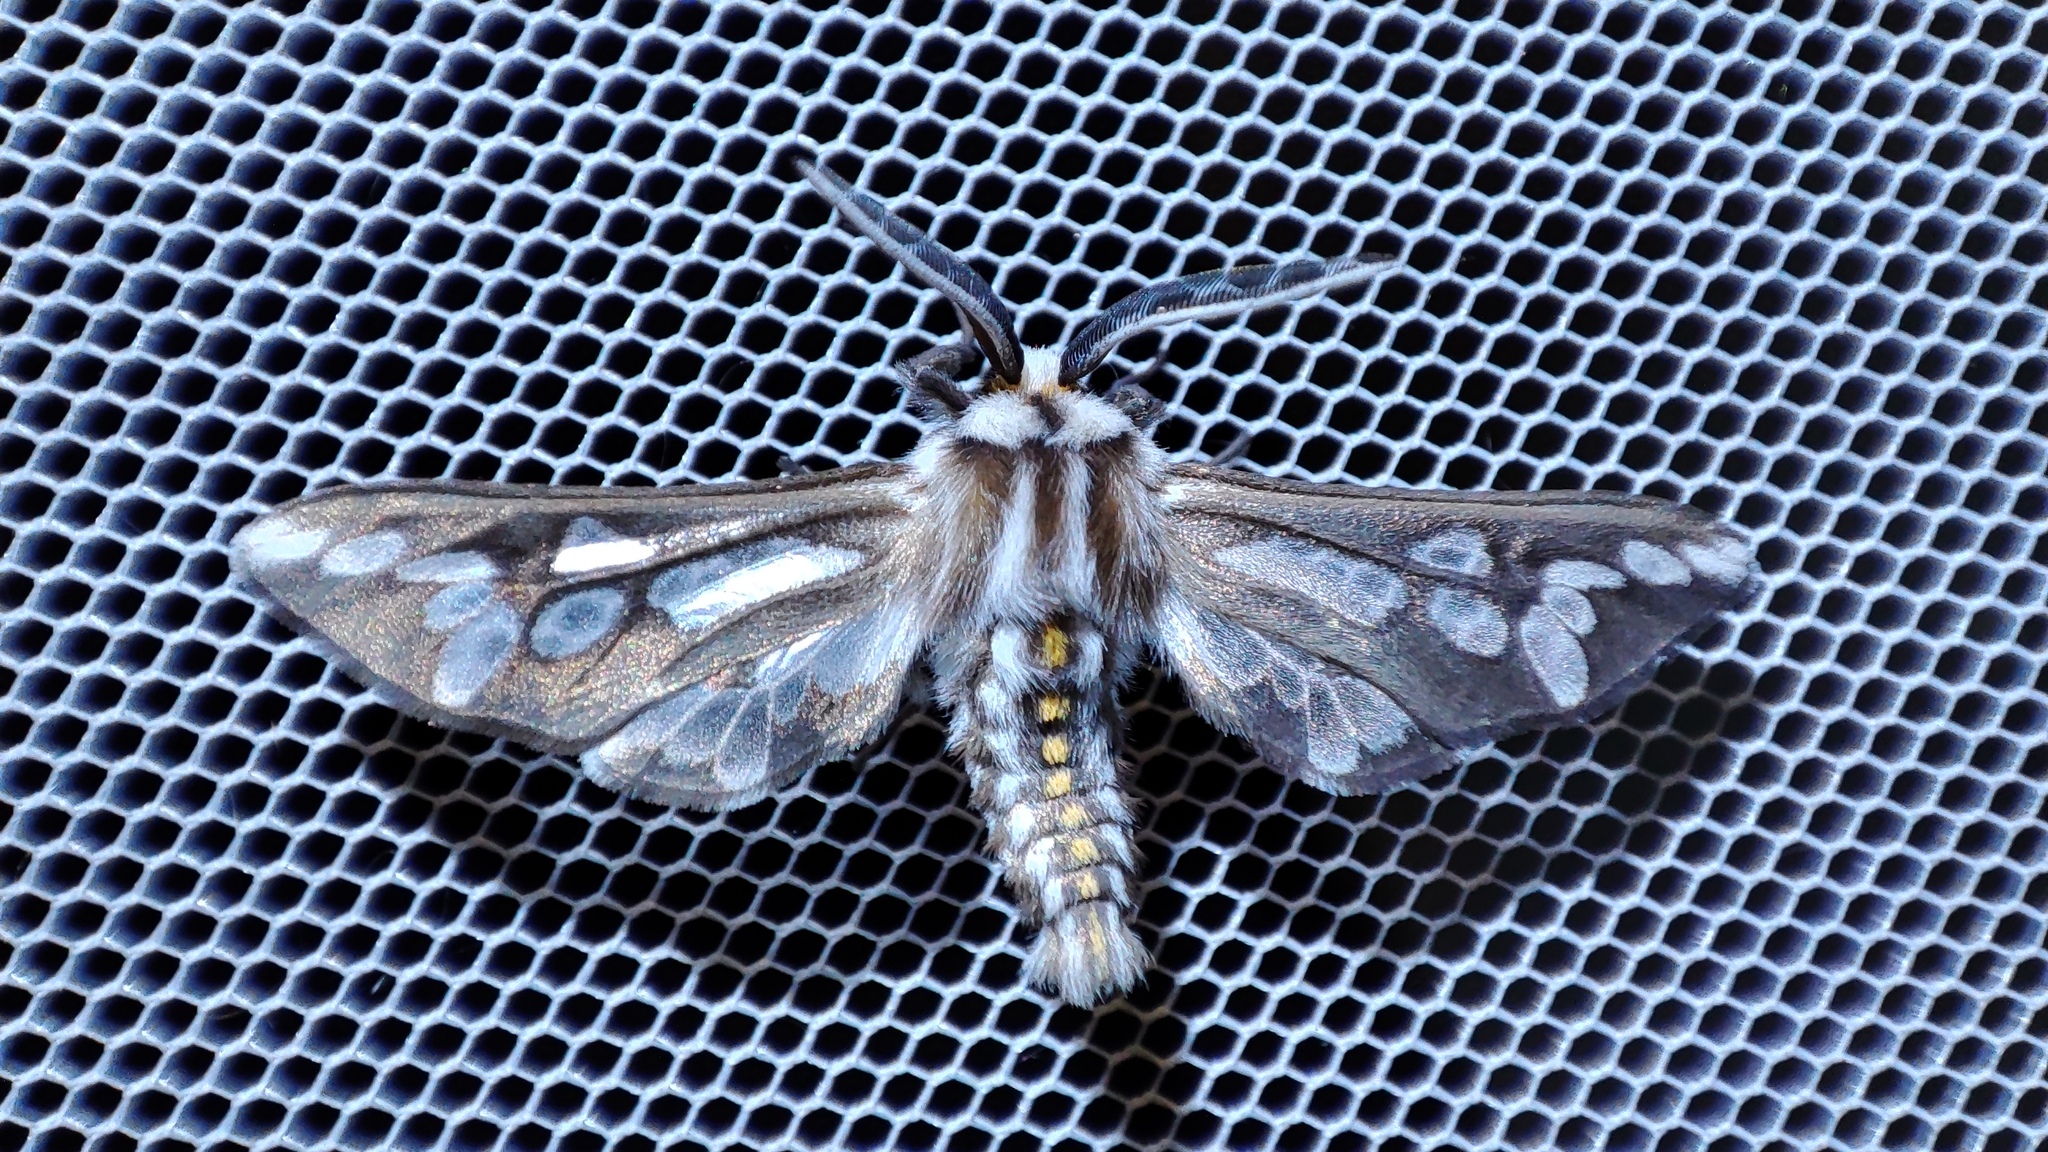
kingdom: Animalia
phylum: Arthropoda
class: Insecta
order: Lepidoptera
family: Erebidae
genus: Thyretes
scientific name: Thyretes hippotes
